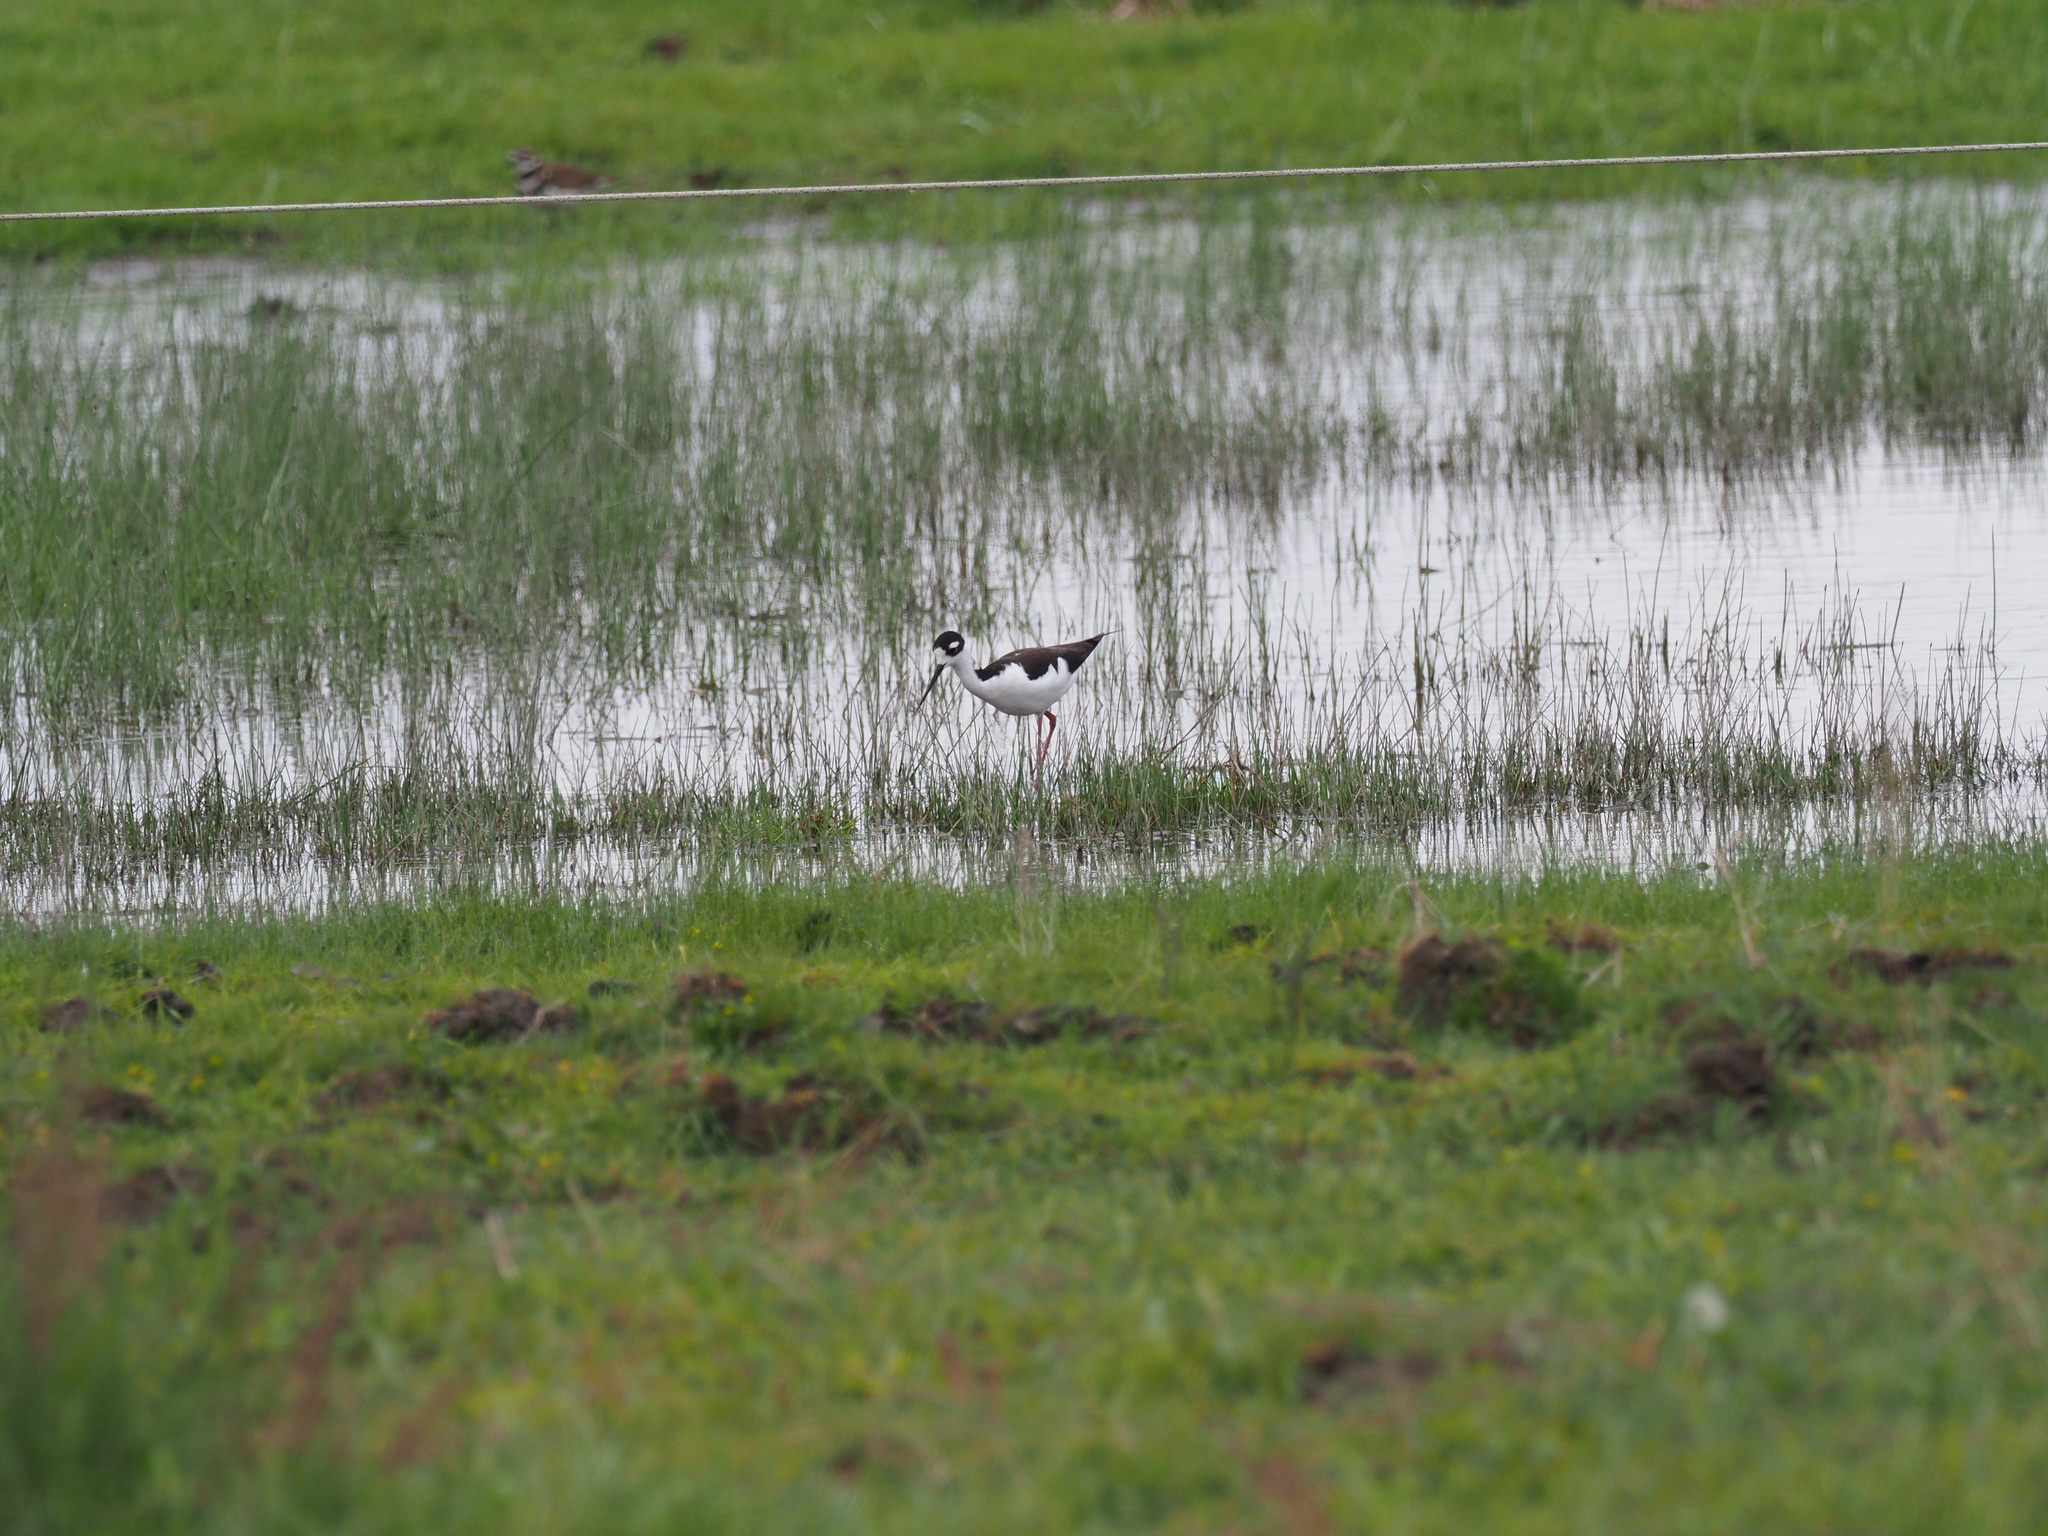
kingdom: Animalia
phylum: Chordata
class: Aves
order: Charadriiformes
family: Recurvirostridae
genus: Himantopus
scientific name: Himantopus mexicanus
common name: Black-necked stilt
